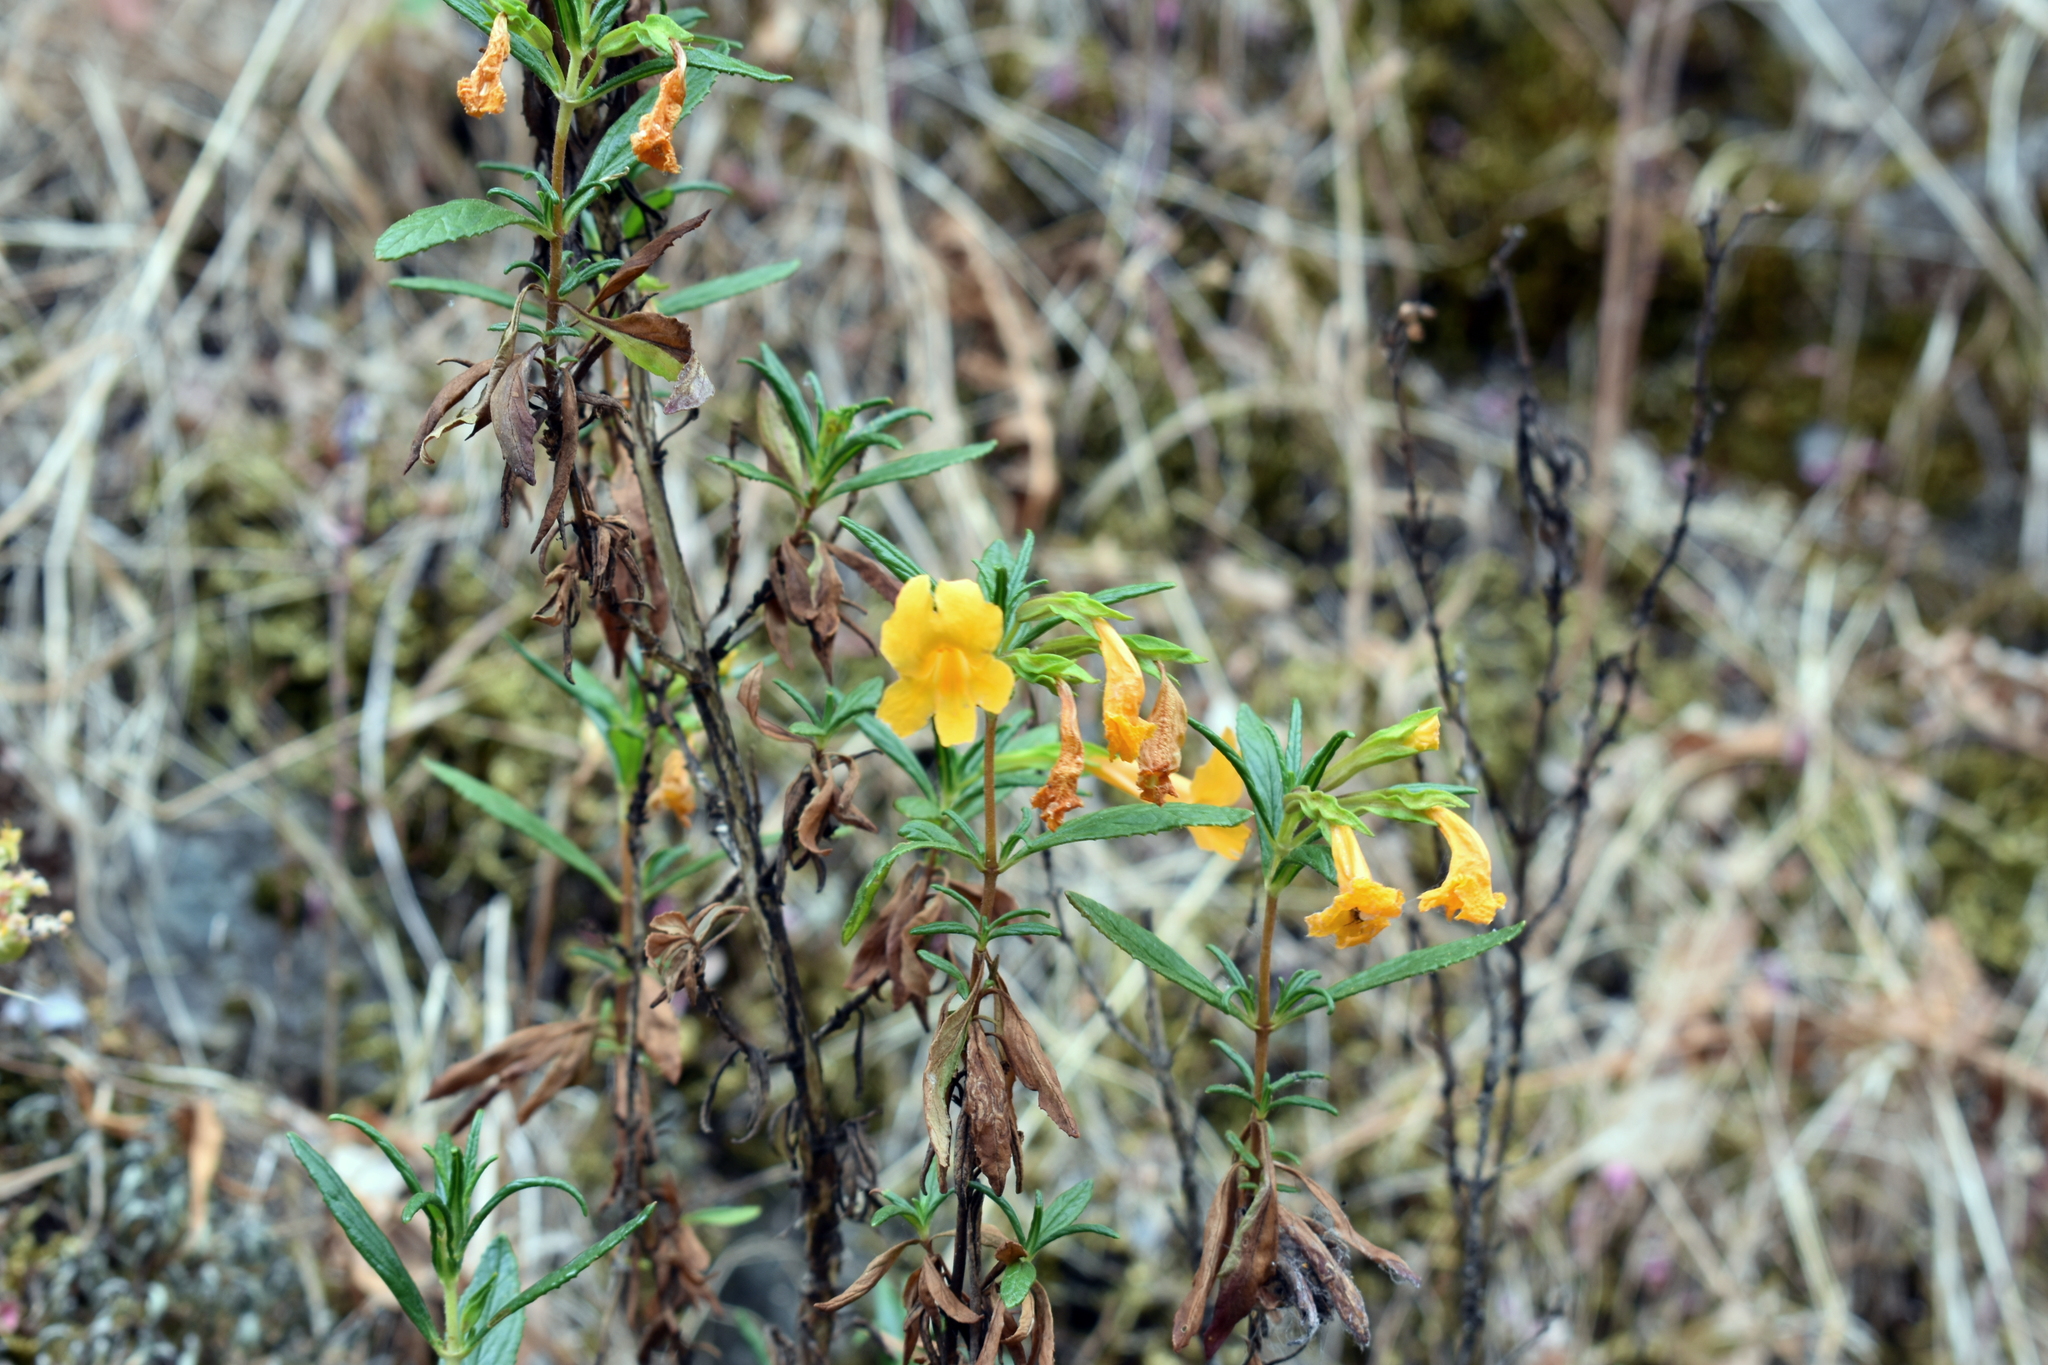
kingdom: Plantae
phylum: Tracheophyta
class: Magnoliopsida
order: Lamiales
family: Phrymaceae
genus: Diplacus
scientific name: Diplacus aurantiacus
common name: Bush monkey-flower
